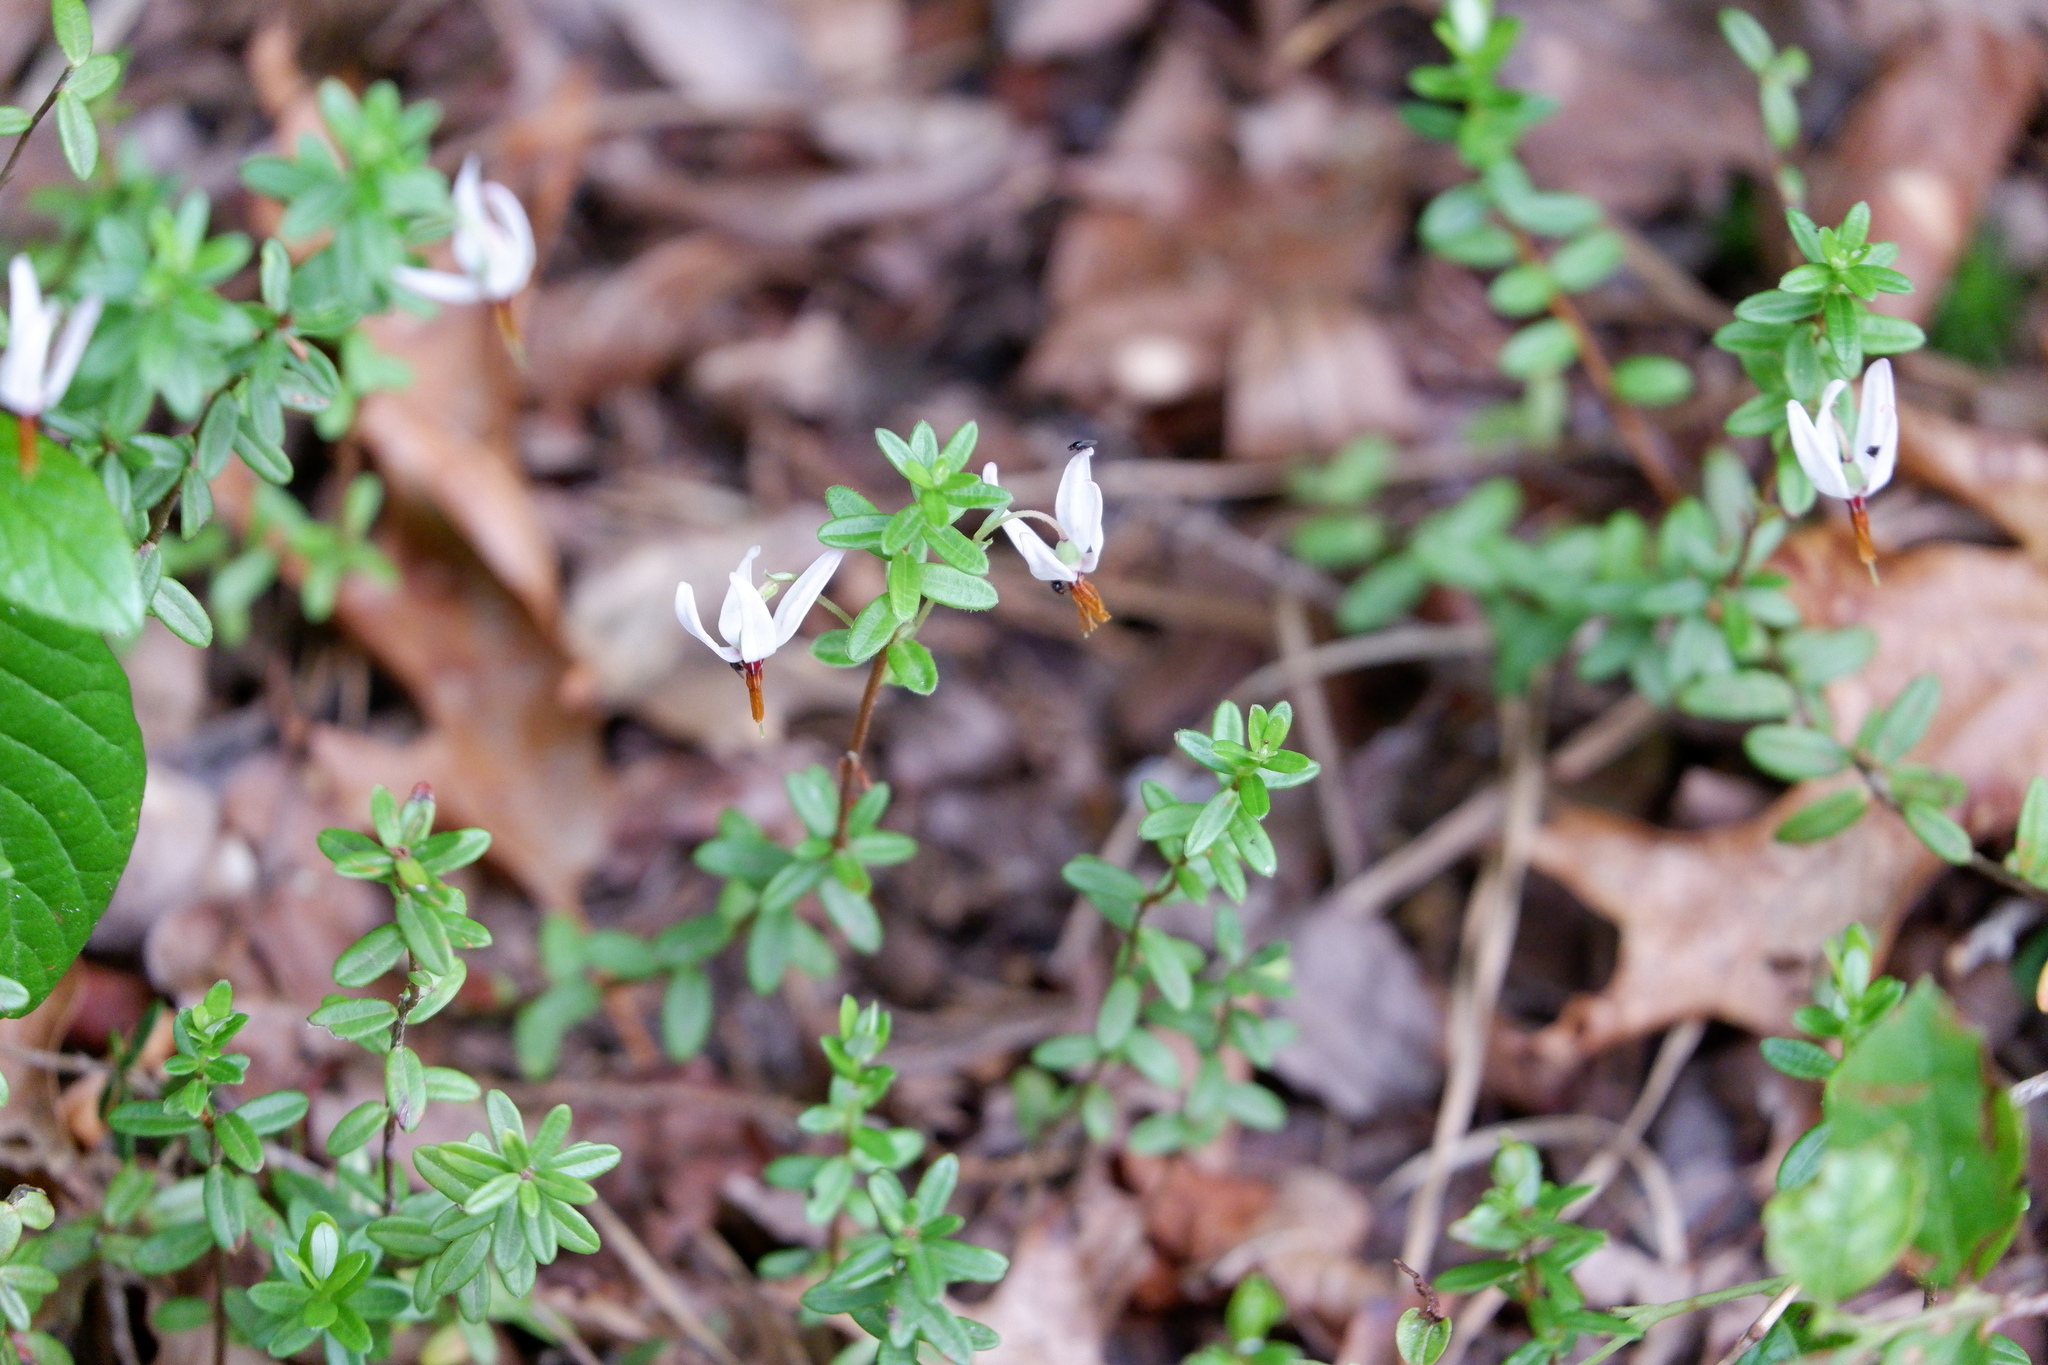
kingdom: Plantae
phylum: Tracheophyta
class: Magnoliopsida
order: Ericales
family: Ericaceae
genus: Vaccinium
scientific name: Vaccinium macrocarpon
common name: American cranberry
